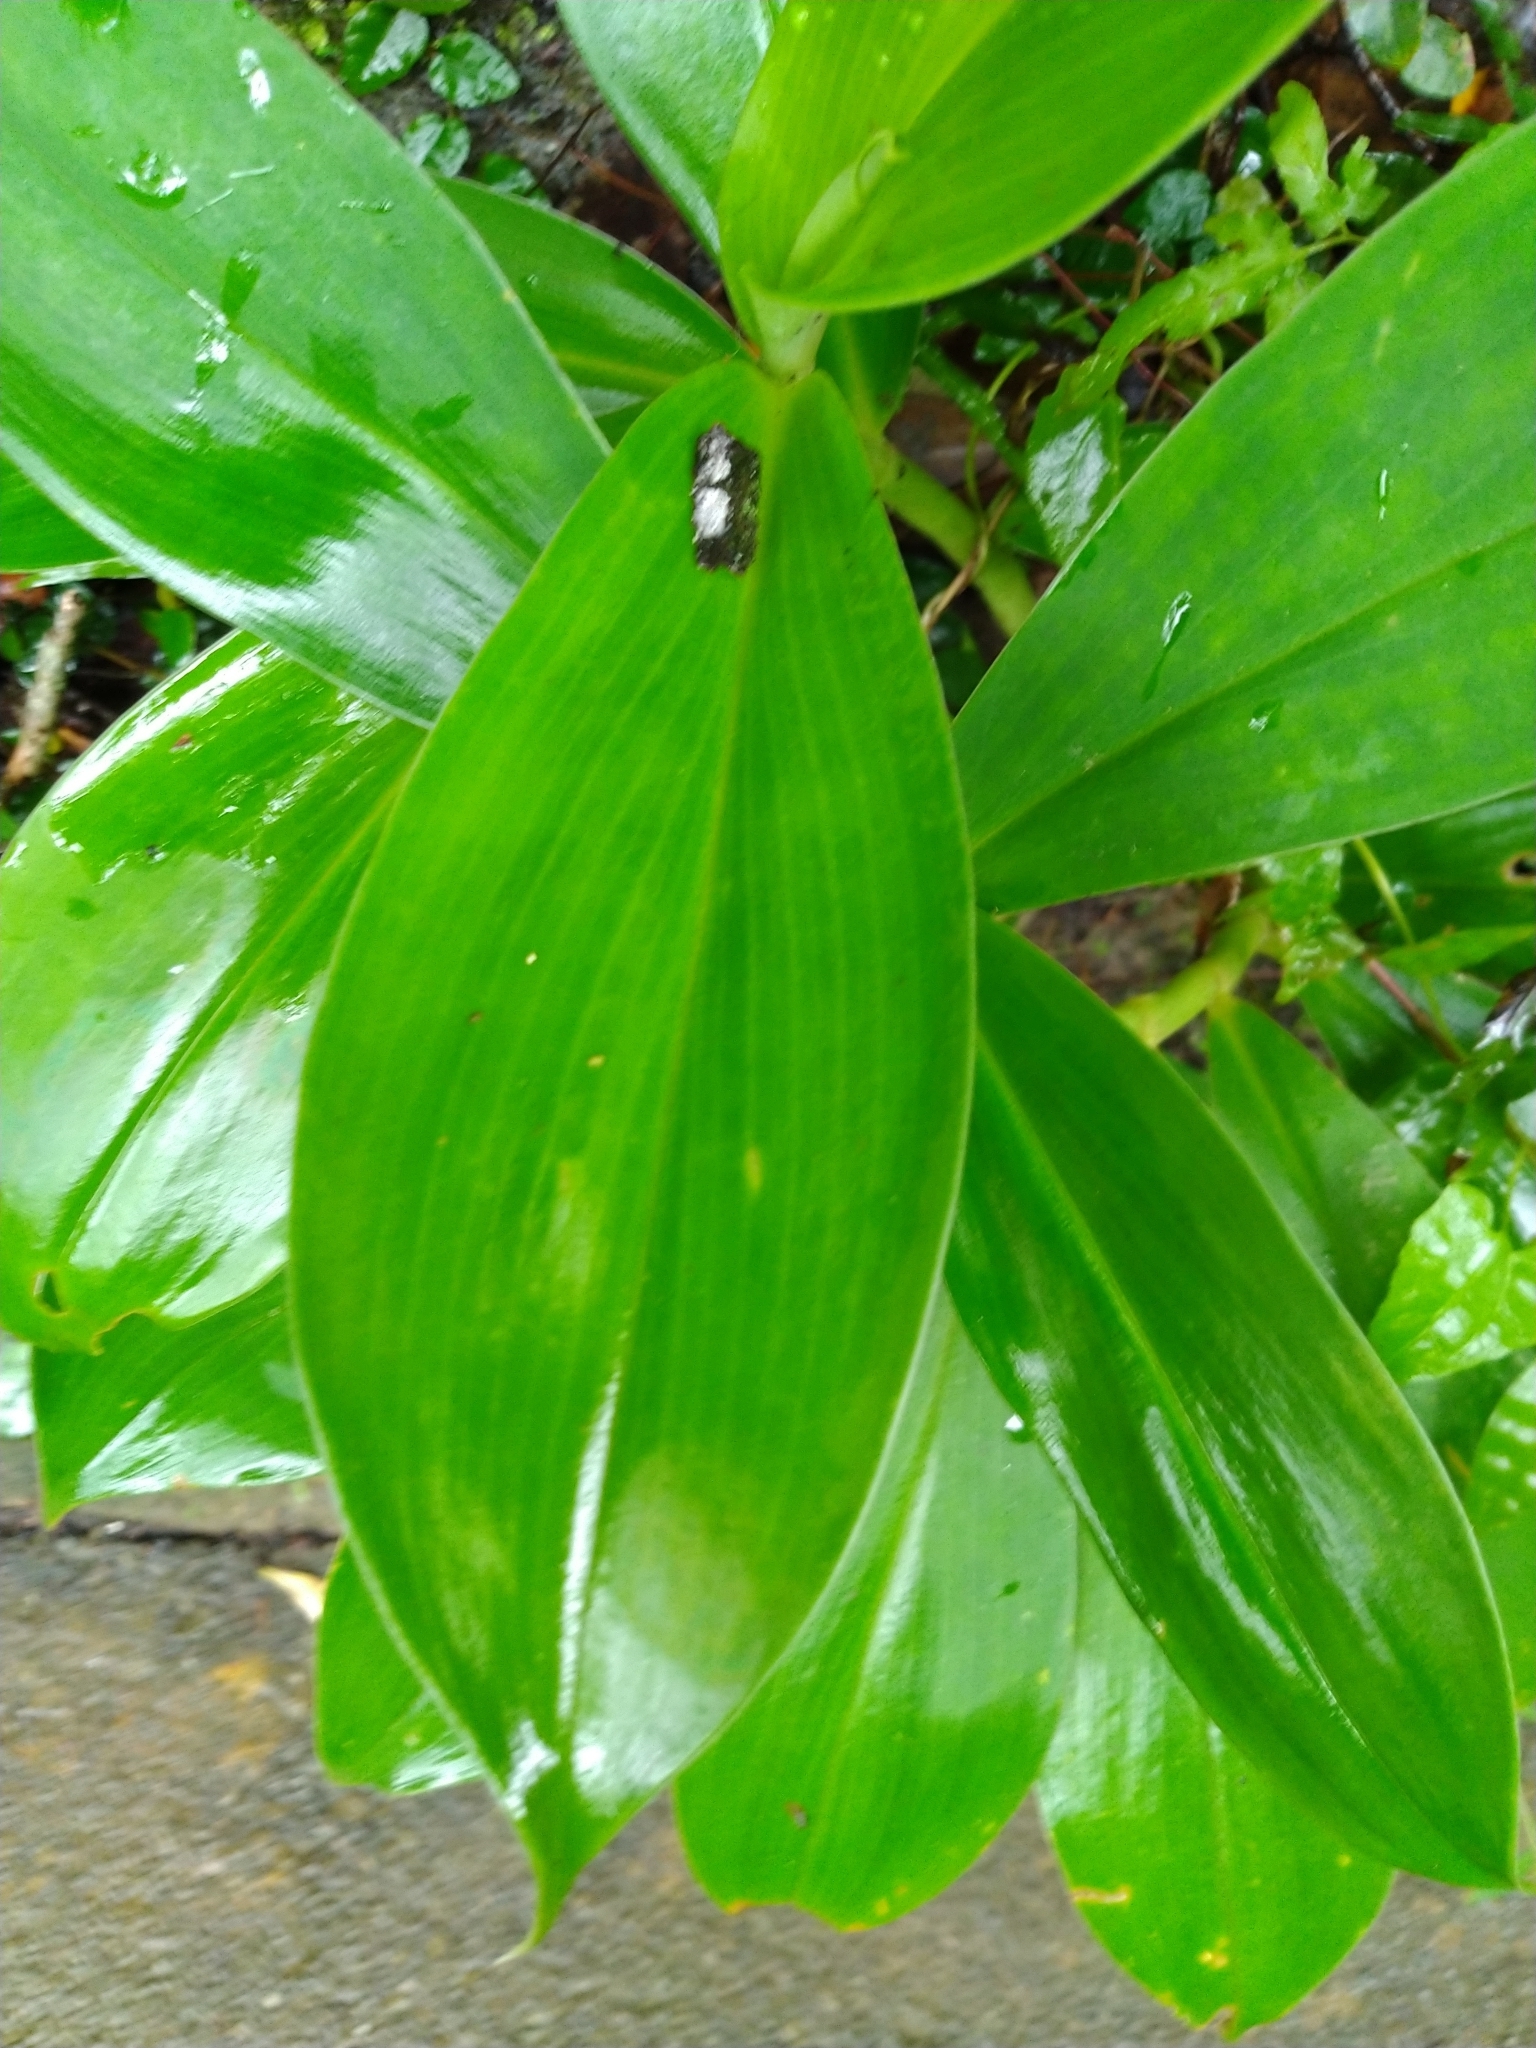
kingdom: Plantae
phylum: Tracheophyta
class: Liliopsida
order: Zingiberales
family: Costaceae
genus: Hellenia
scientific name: Hellenia speciosa
